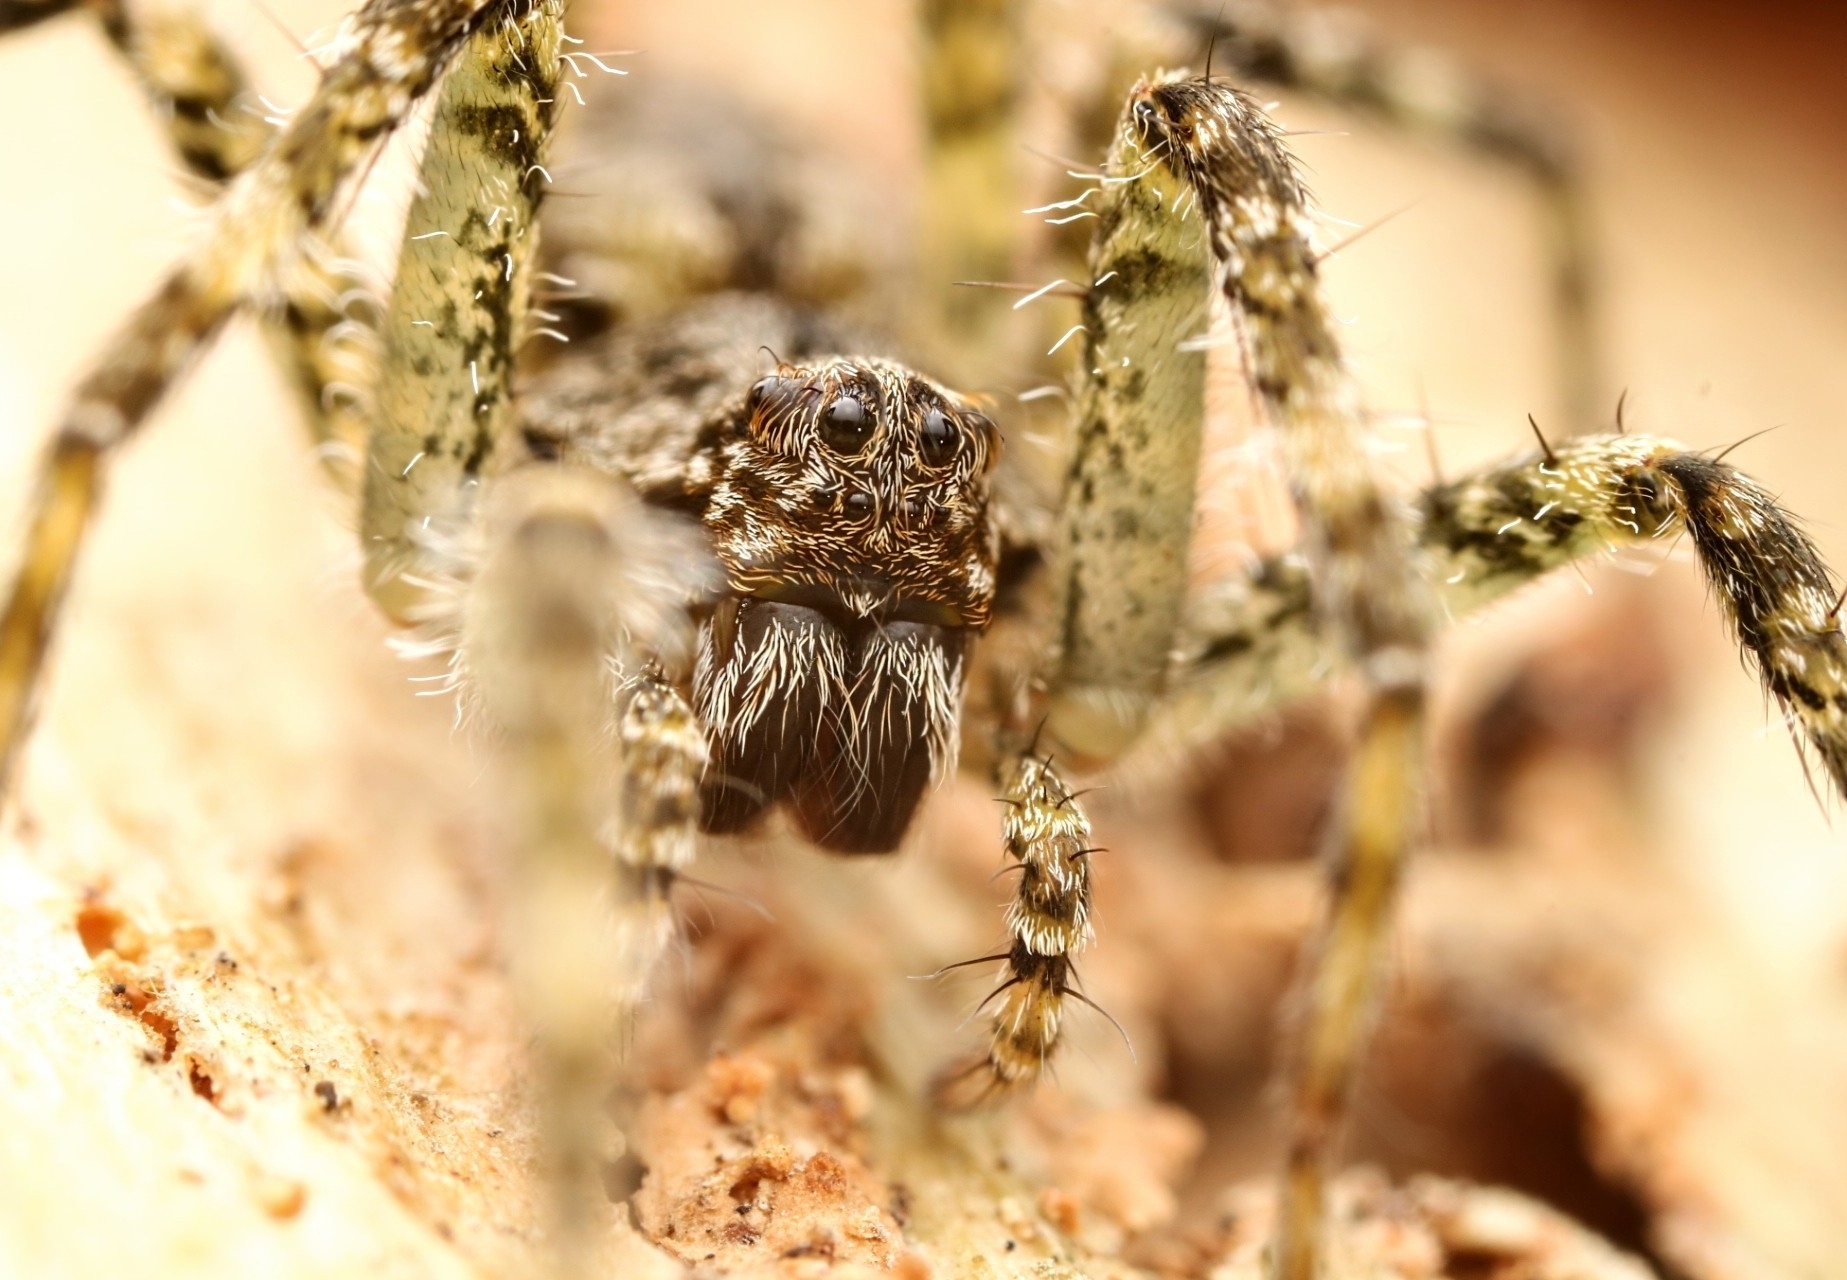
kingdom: Animalia
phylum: Arthropoda
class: Arachnida
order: Araneae
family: Pisauridae
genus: Dolomedes
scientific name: Dolomedes albineus
